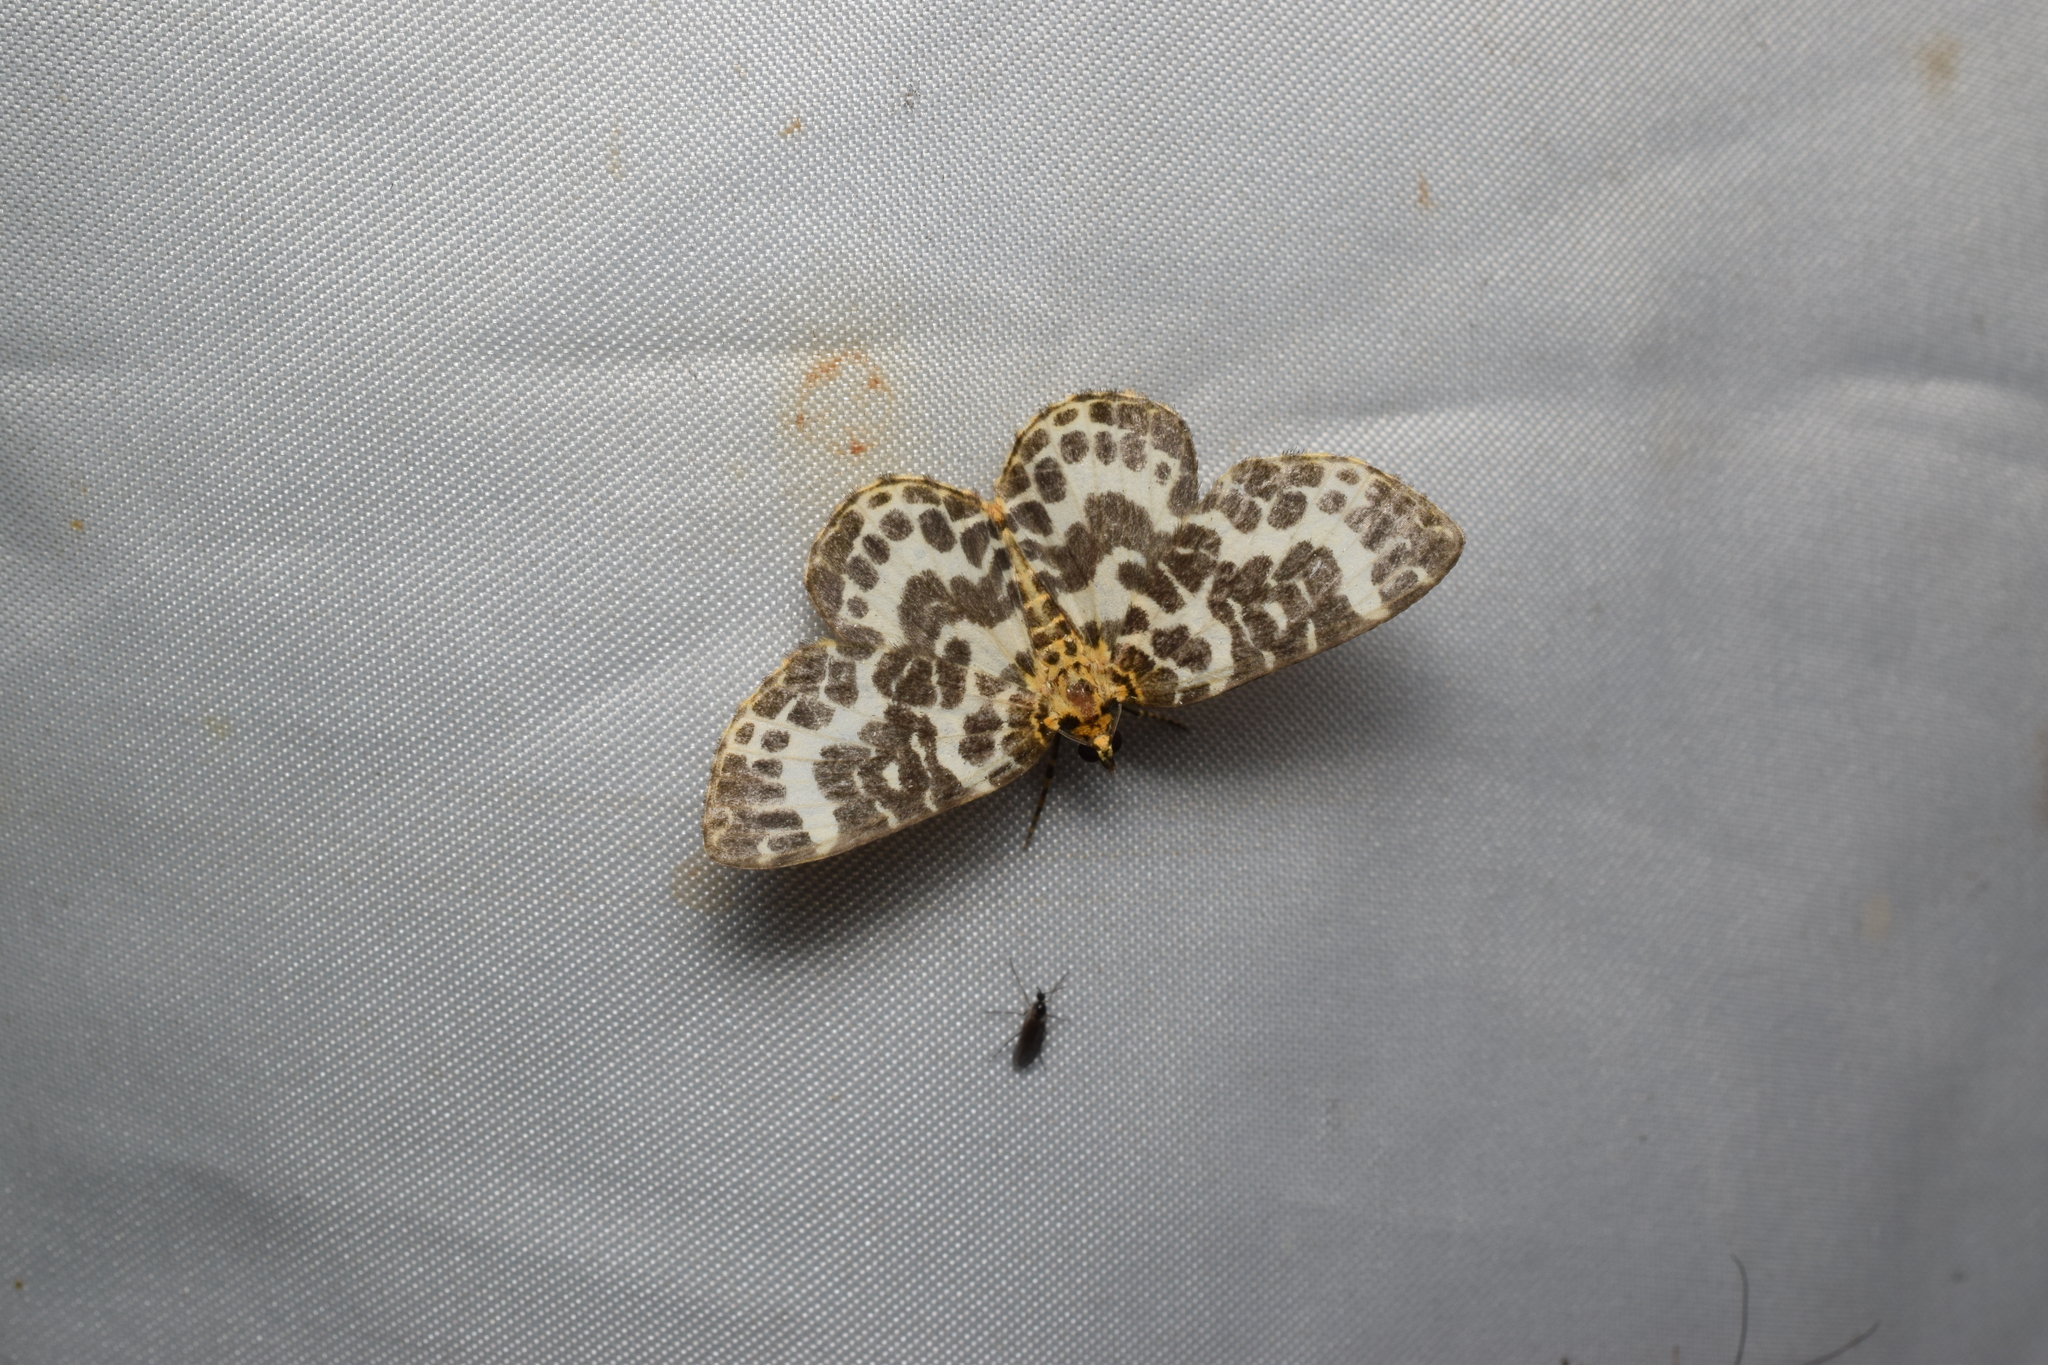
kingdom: Animalia
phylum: Arthropoda
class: Insecta
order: Lepidoptera
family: Geometridae
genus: Gandaritis
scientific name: Gandaritis
